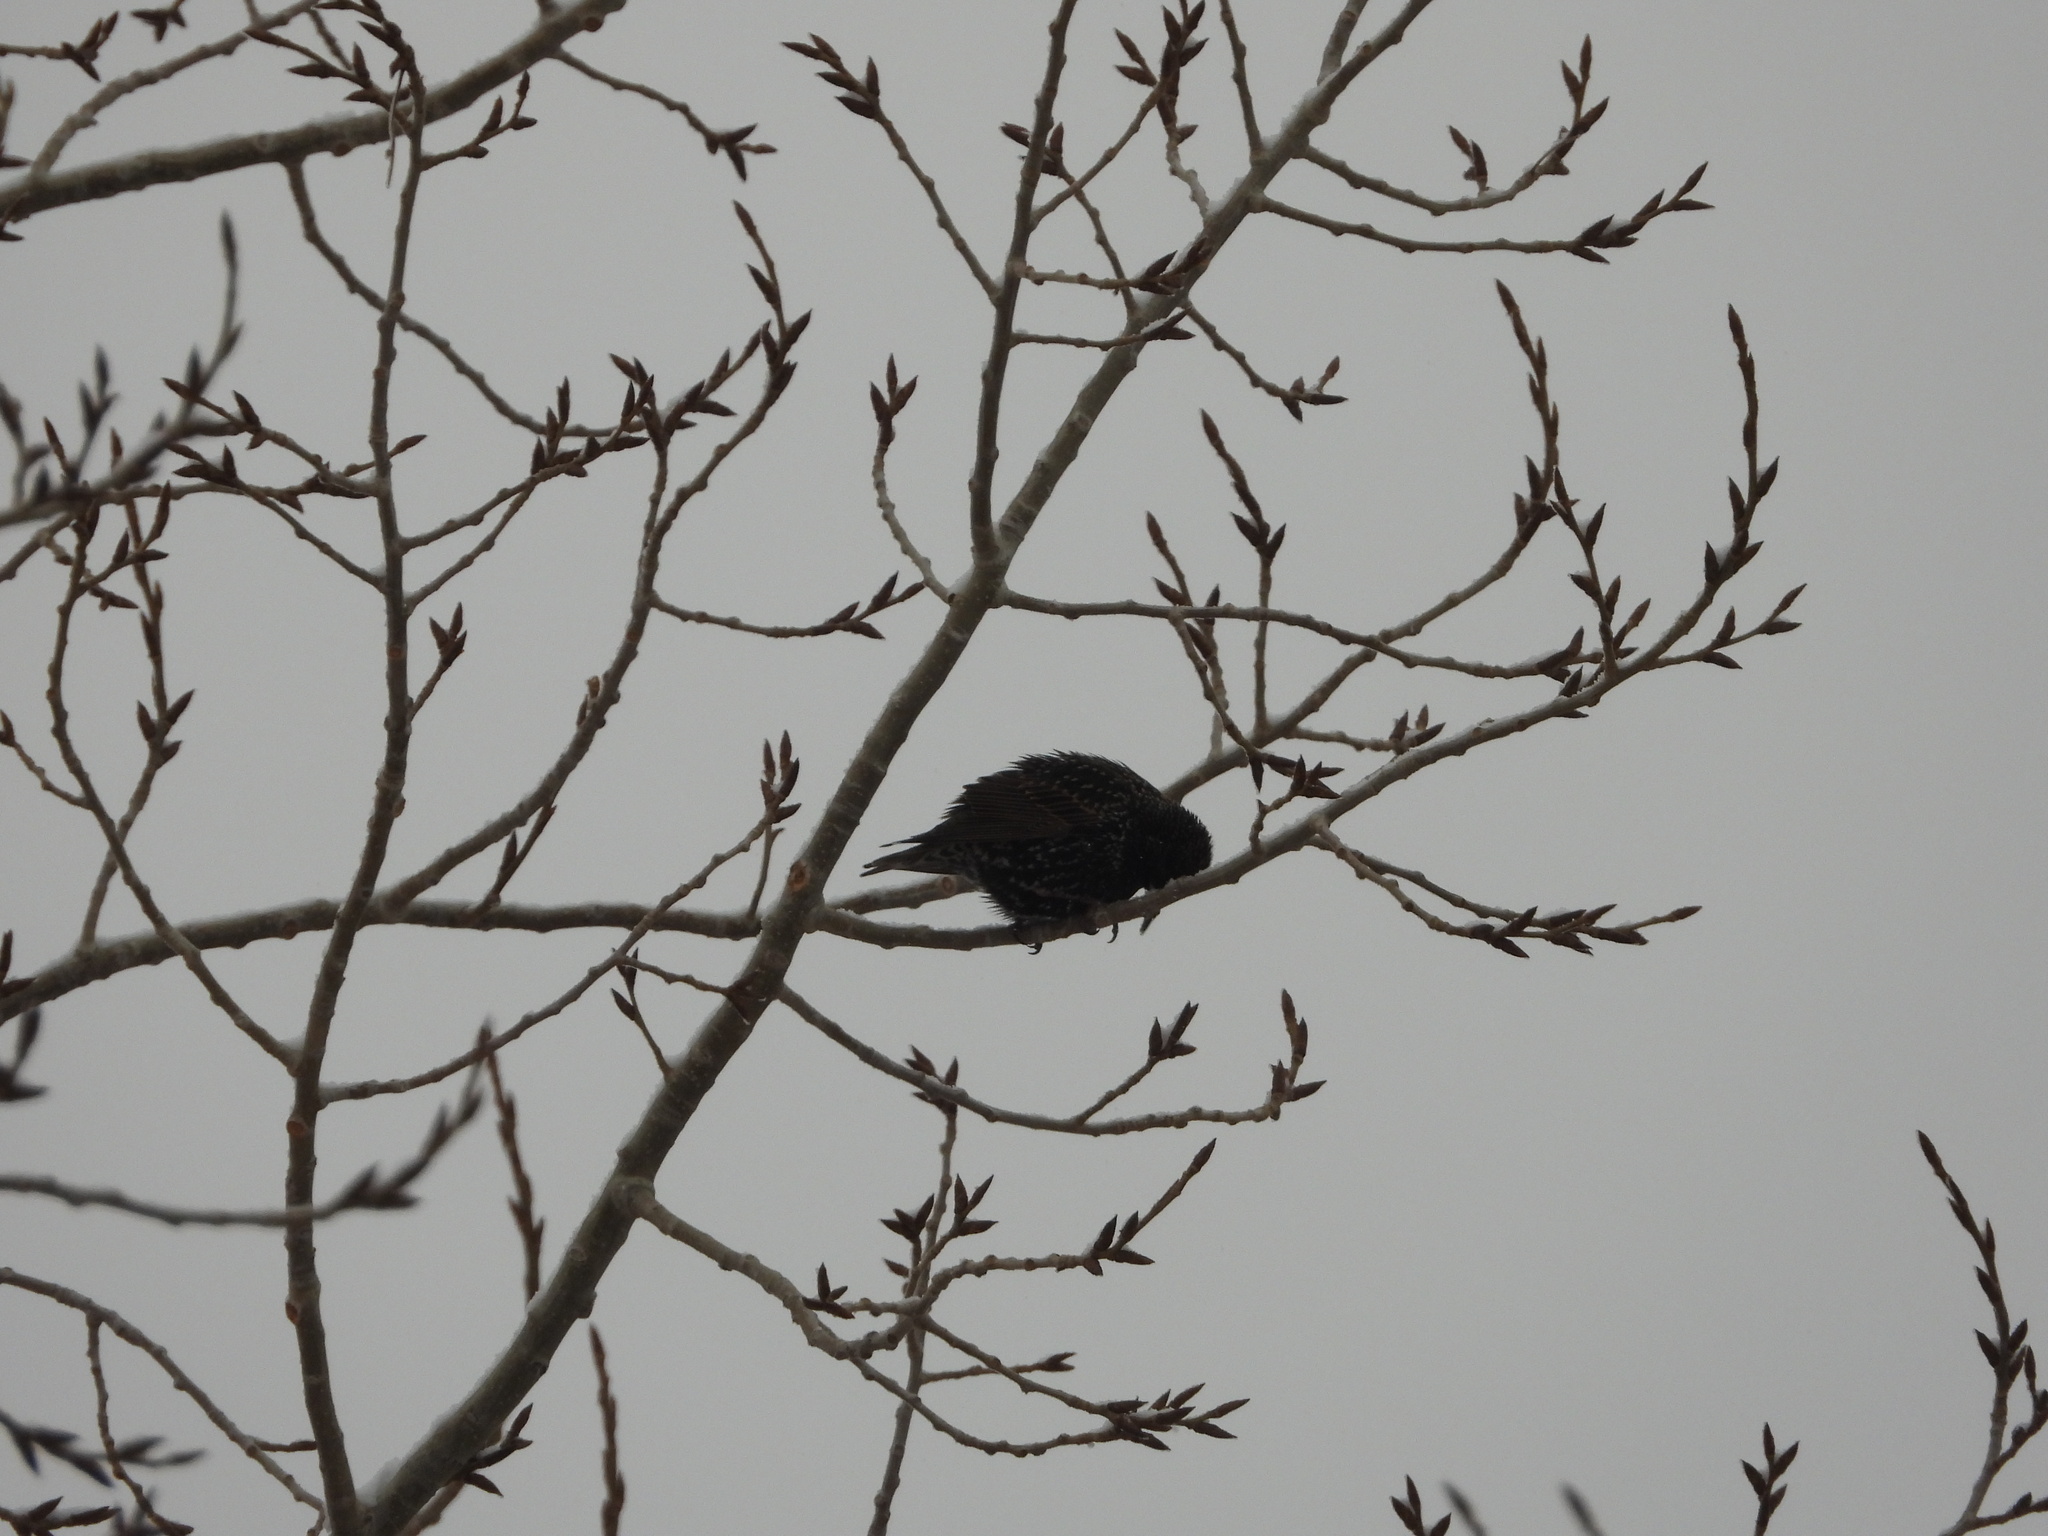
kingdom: Animalia
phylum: Chordata
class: Aves
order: Passeriformes
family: Sturnidae
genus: Sturnus
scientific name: Sturnus vulgaris
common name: Common starling
